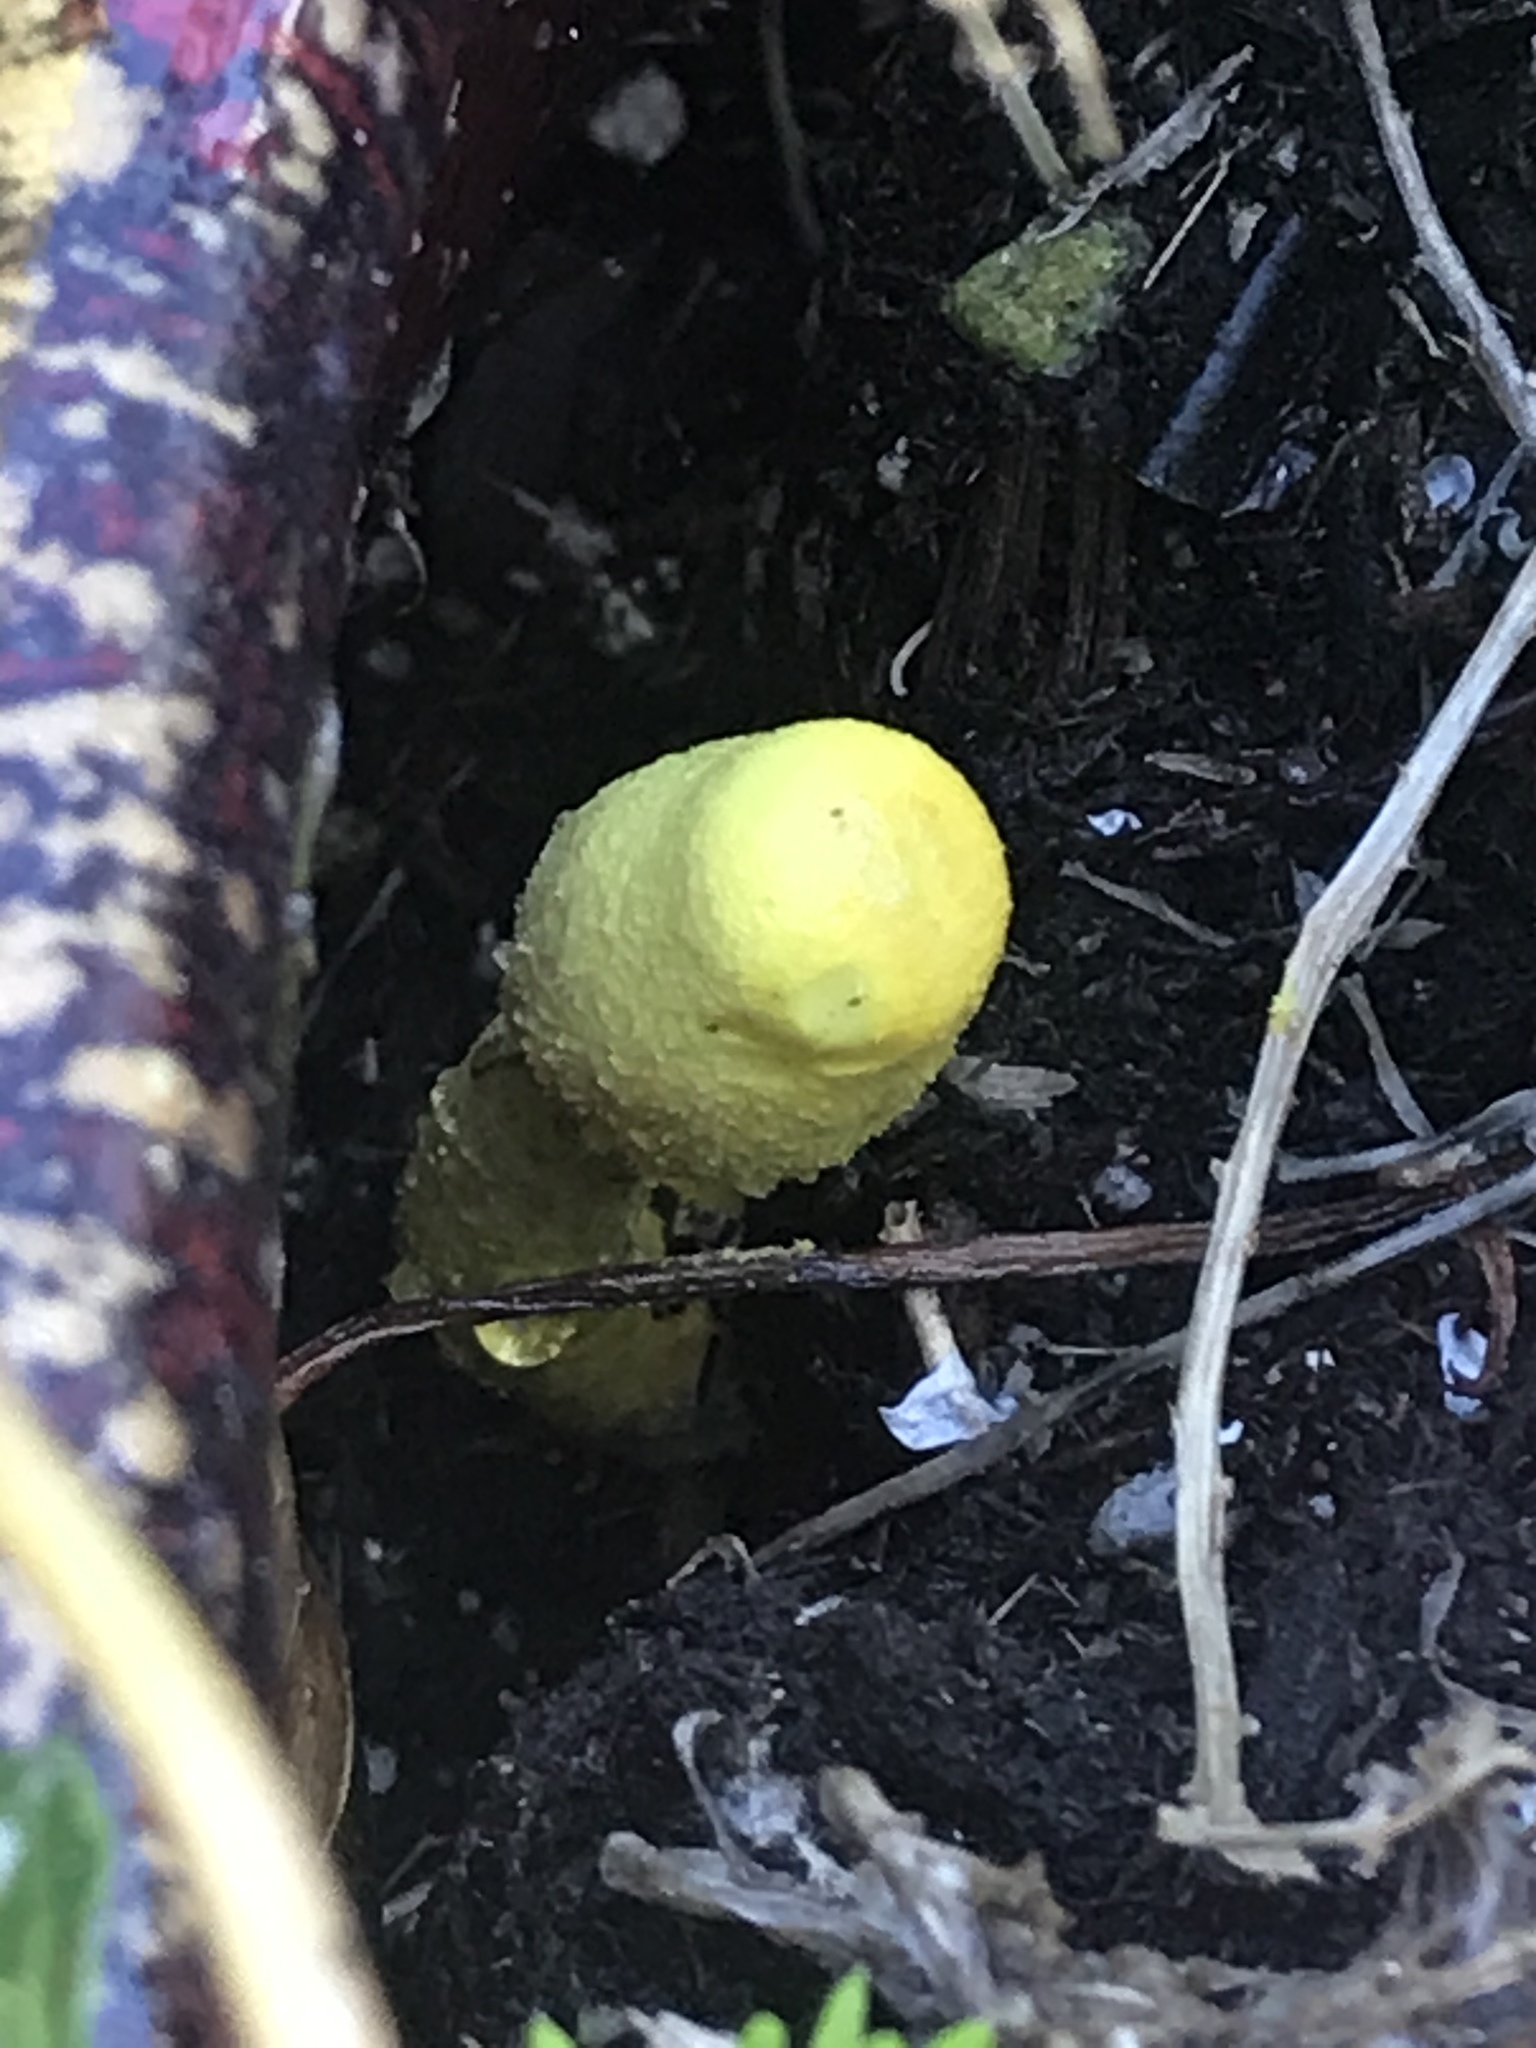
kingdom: Fungi
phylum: Basidiomycota
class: Agaricomycetes
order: Agaricales
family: Agaricaceae
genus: Leucocoprinus
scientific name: Leucocoprinus birnbaumii
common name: Plantpot dapperling
